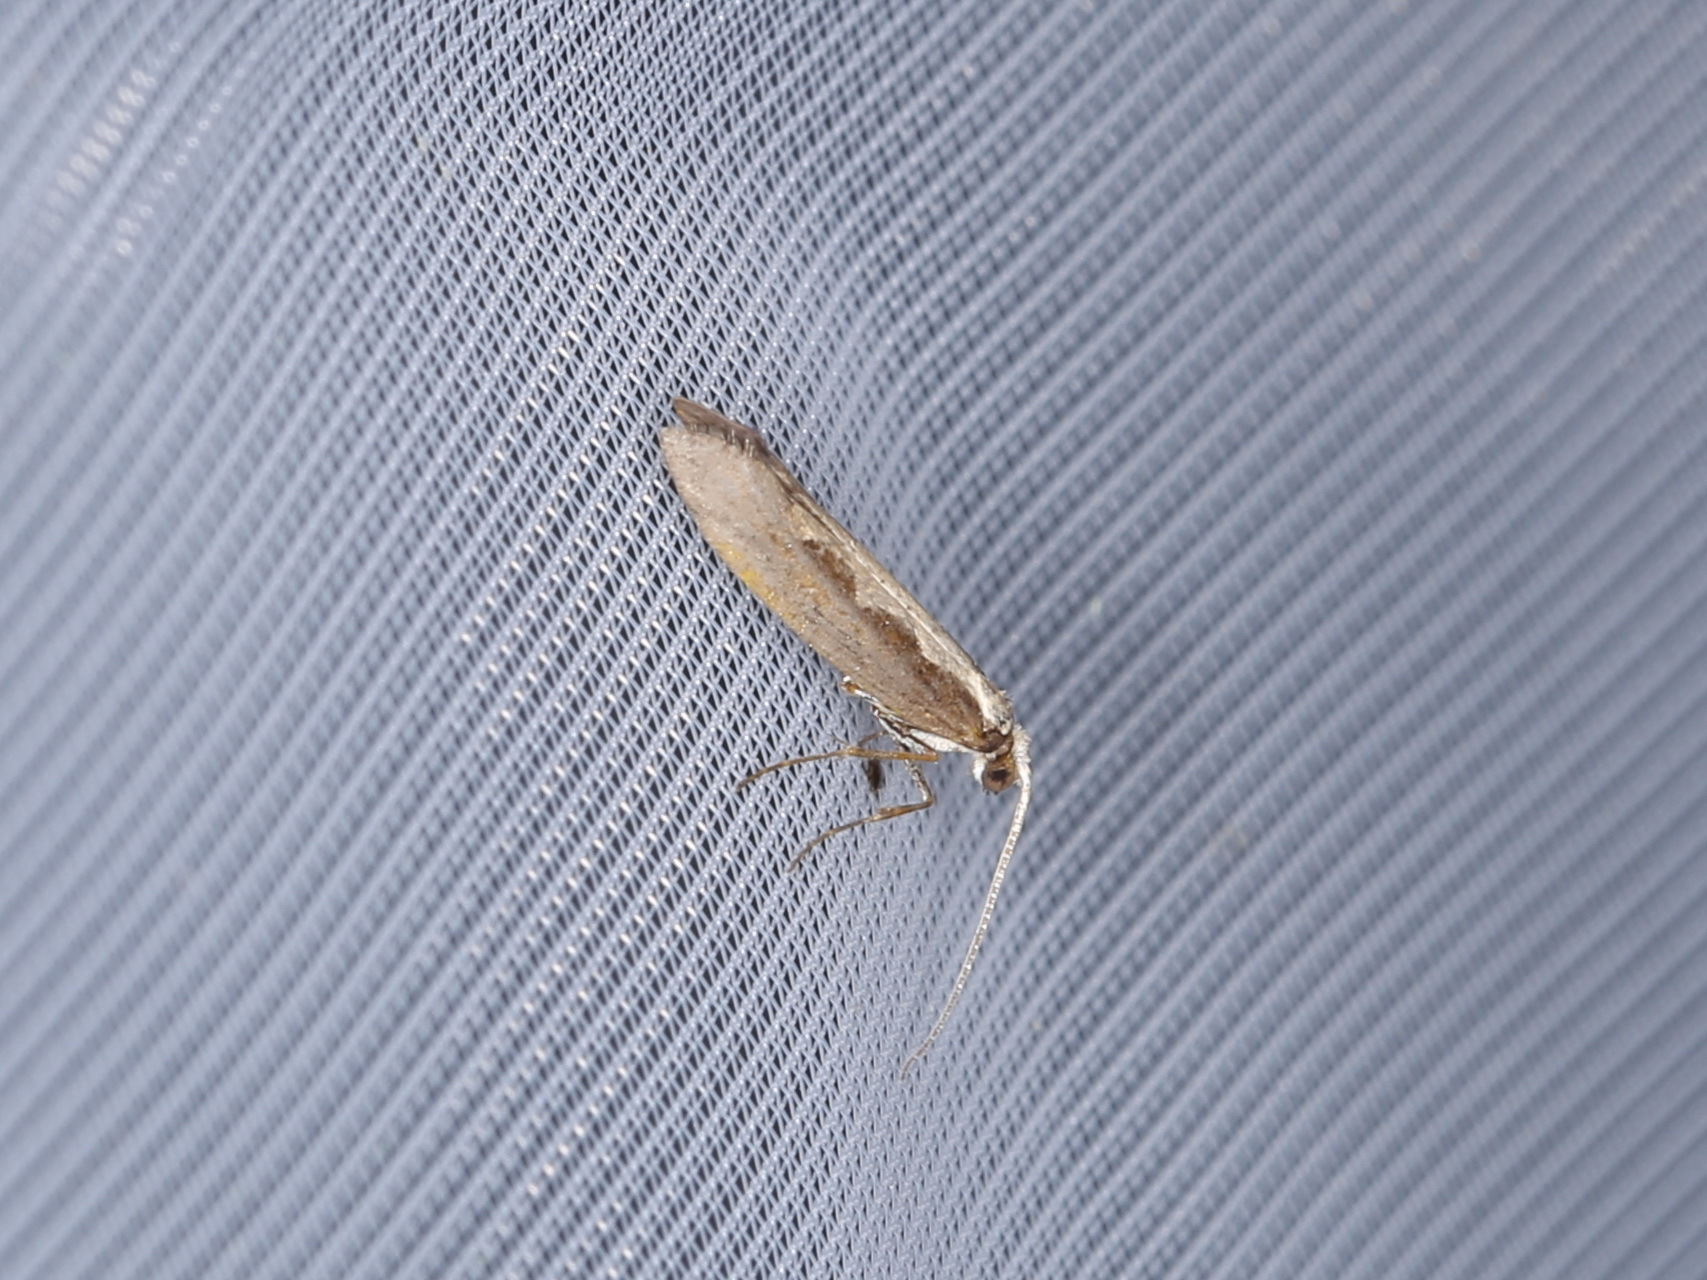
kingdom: Animalia
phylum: Arthropoda
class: Insecta
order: Lepidoptera
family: Plutellidae
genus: Plutella
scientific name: Plutella xylostella
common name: Diamond-back moth
